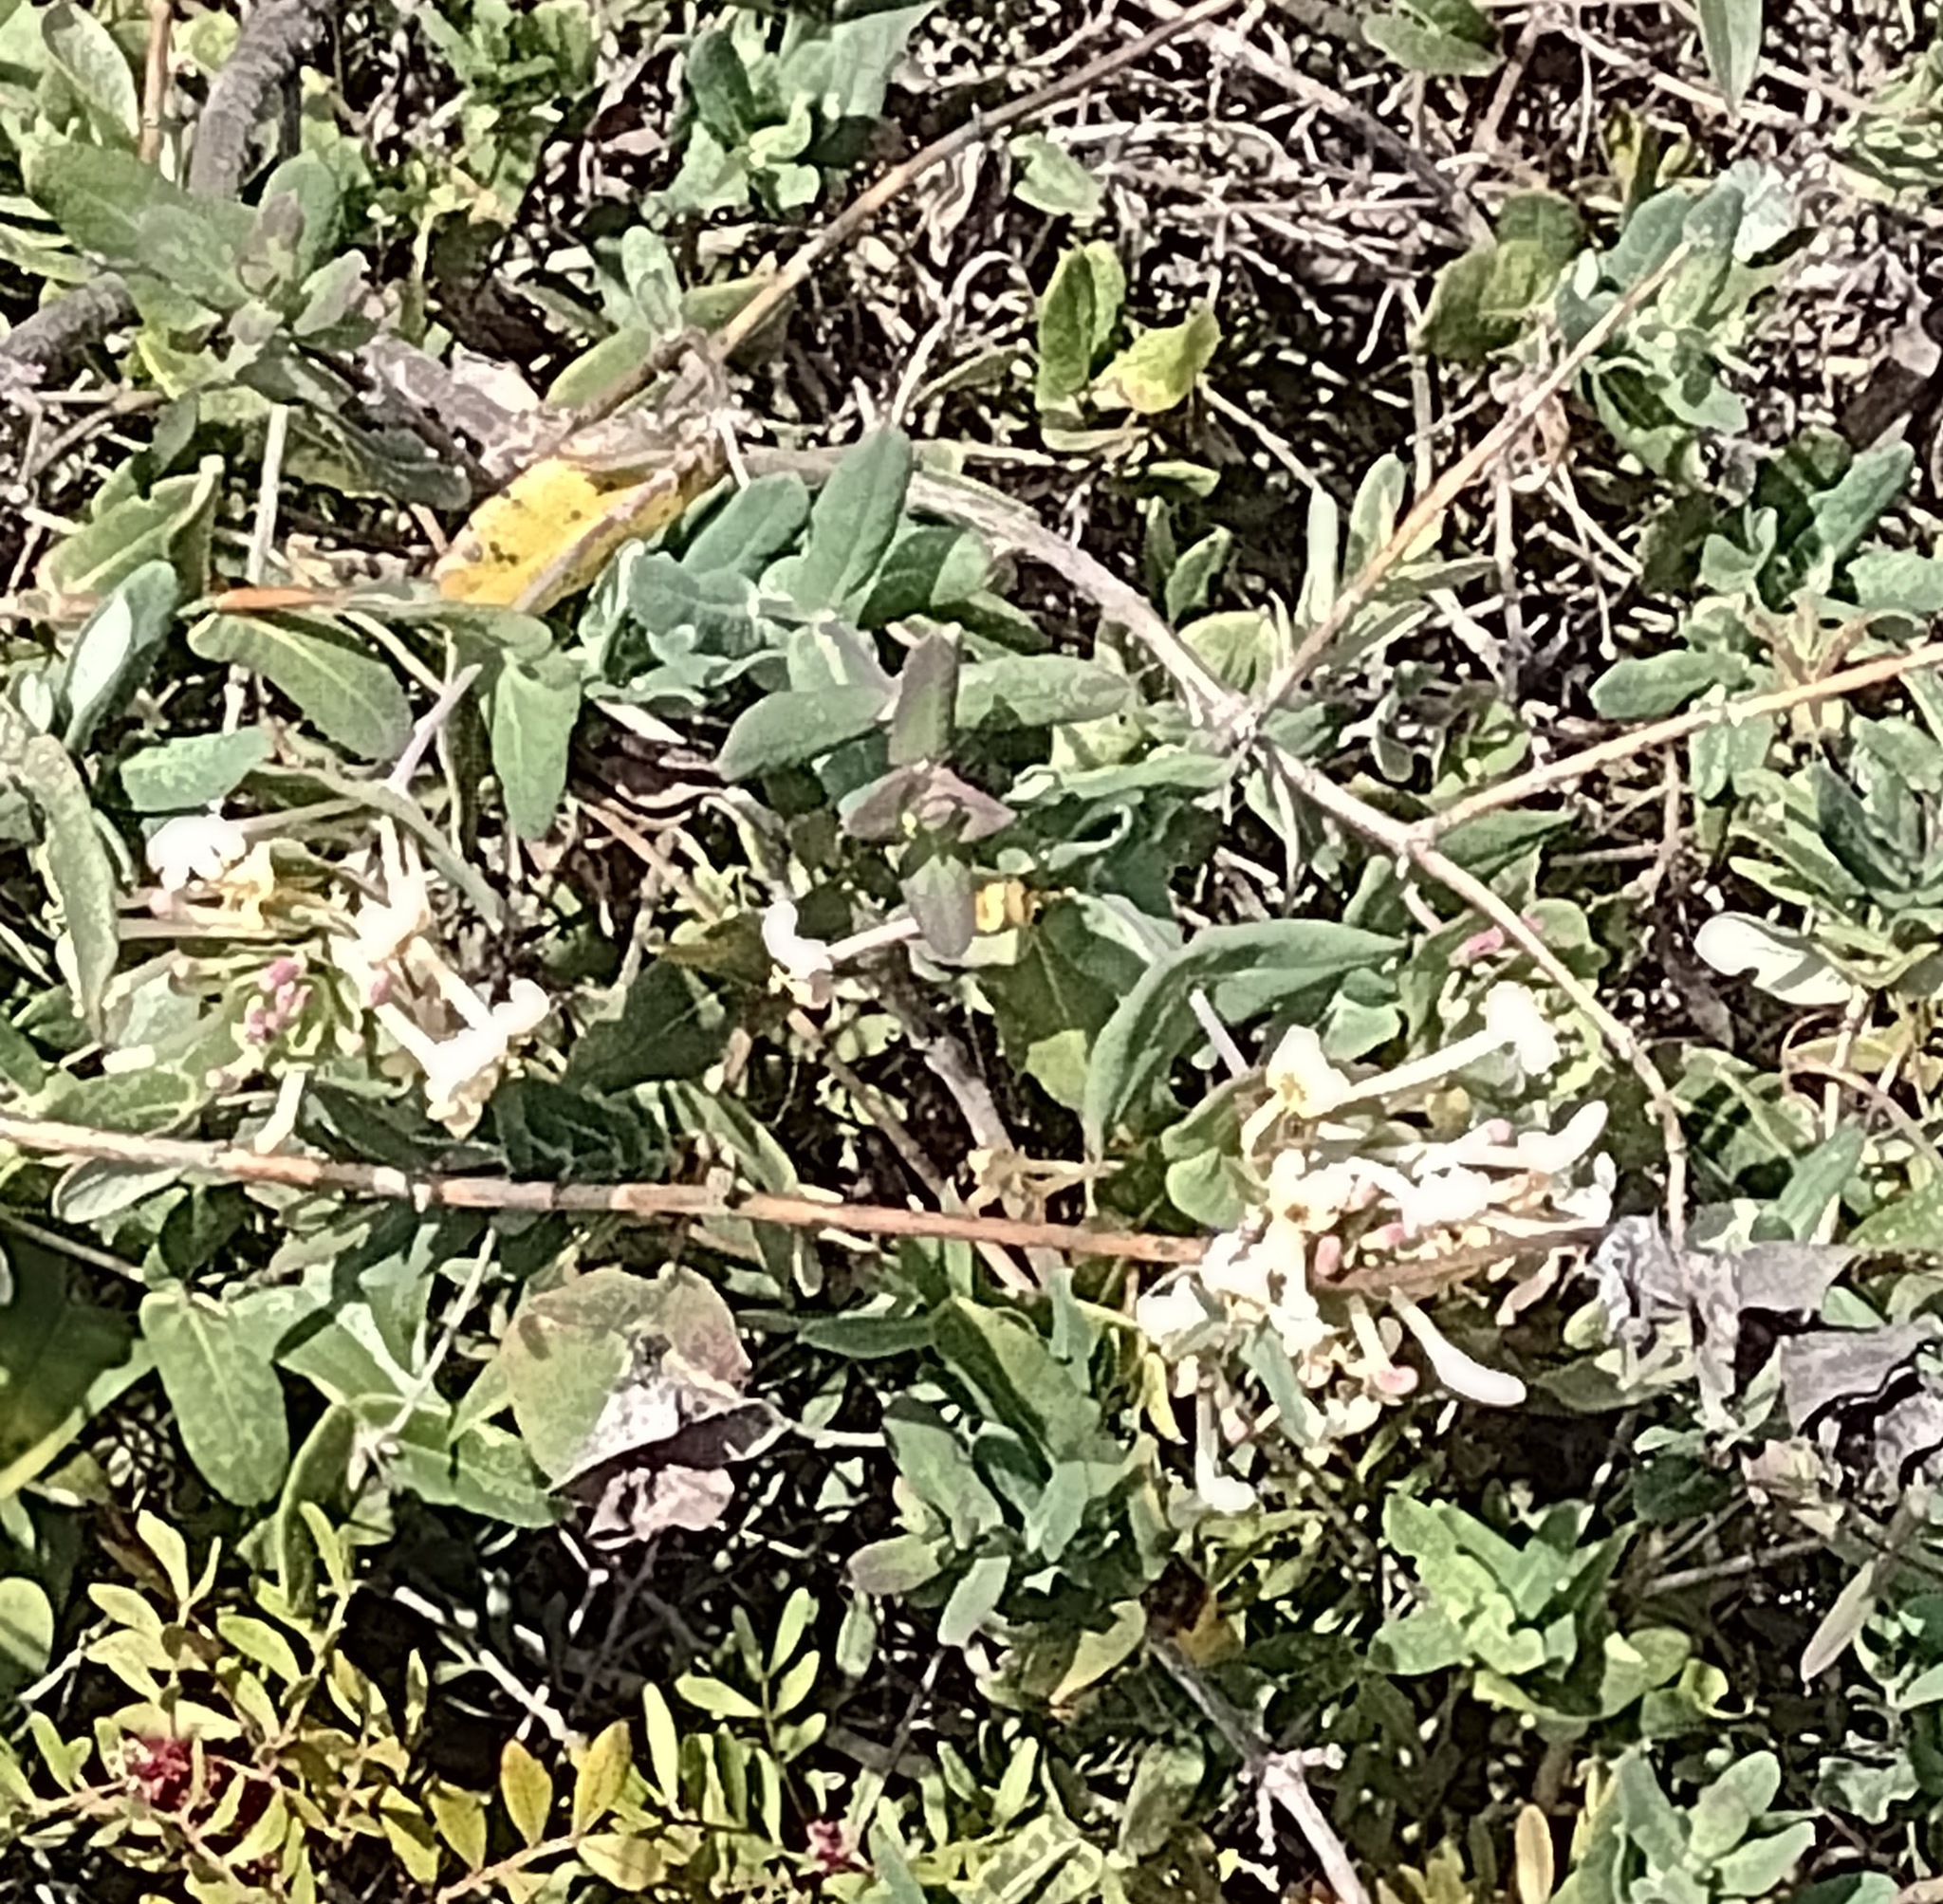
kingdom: Plantae
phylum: Tracheophyta
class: Magnoliopsida
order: Dipsacales
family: Caprifoliaceae
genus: Lonicera
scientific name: Lonicera implexa
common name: Minorca honeysuckle
